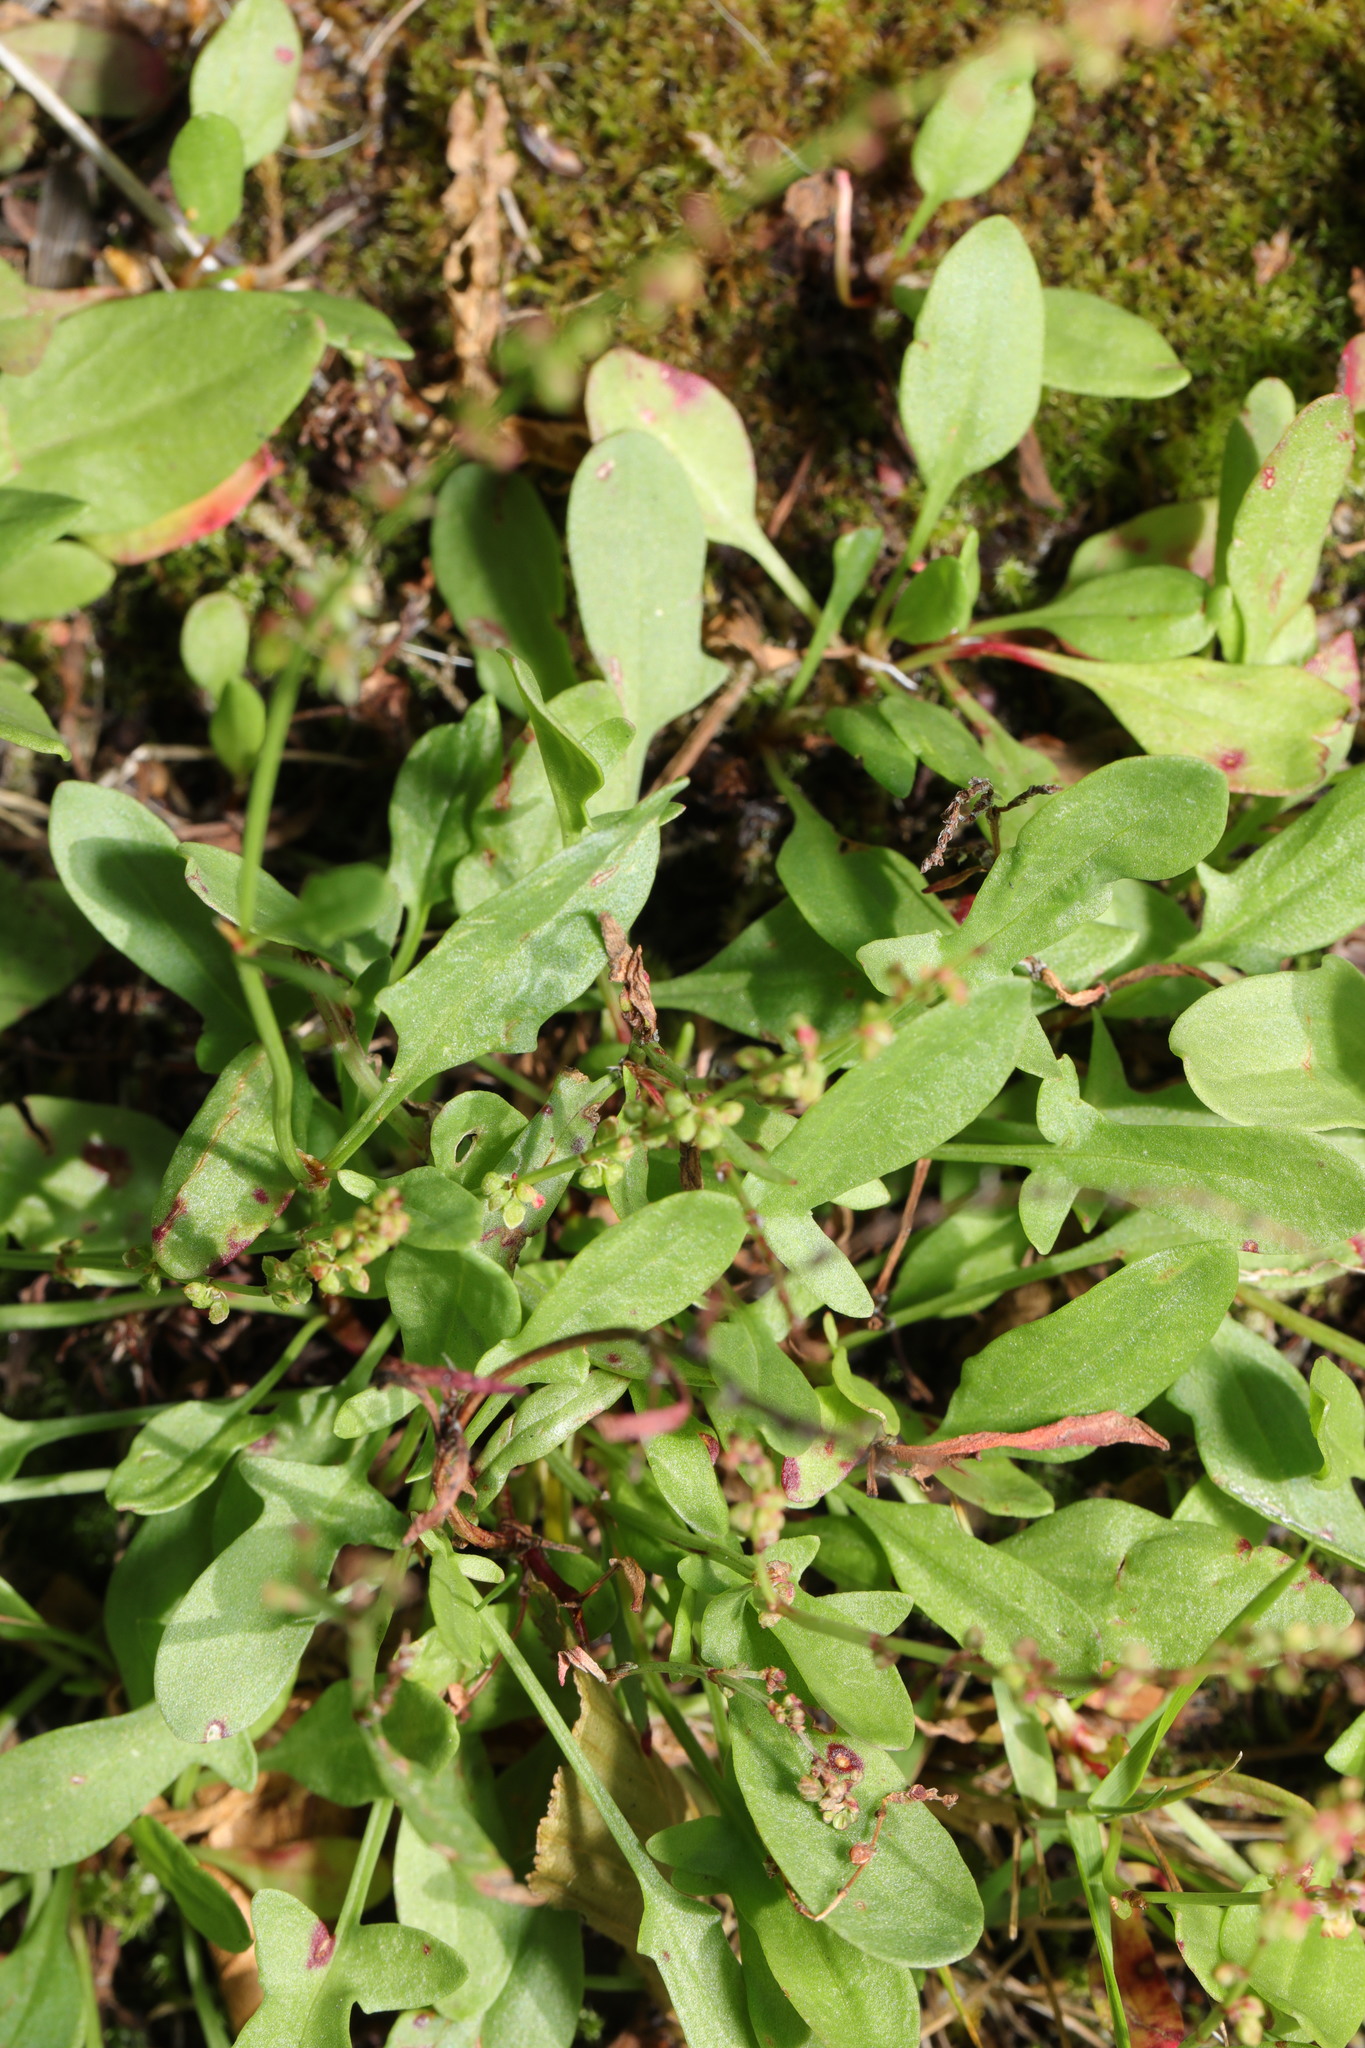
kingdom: Plantae
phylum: Tracheophyta
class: Magnoliopsida
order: Caryophyllales
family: Polygonaceae
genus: Rumex
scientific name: Rumex acetosella
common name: Common sheep sorrel
